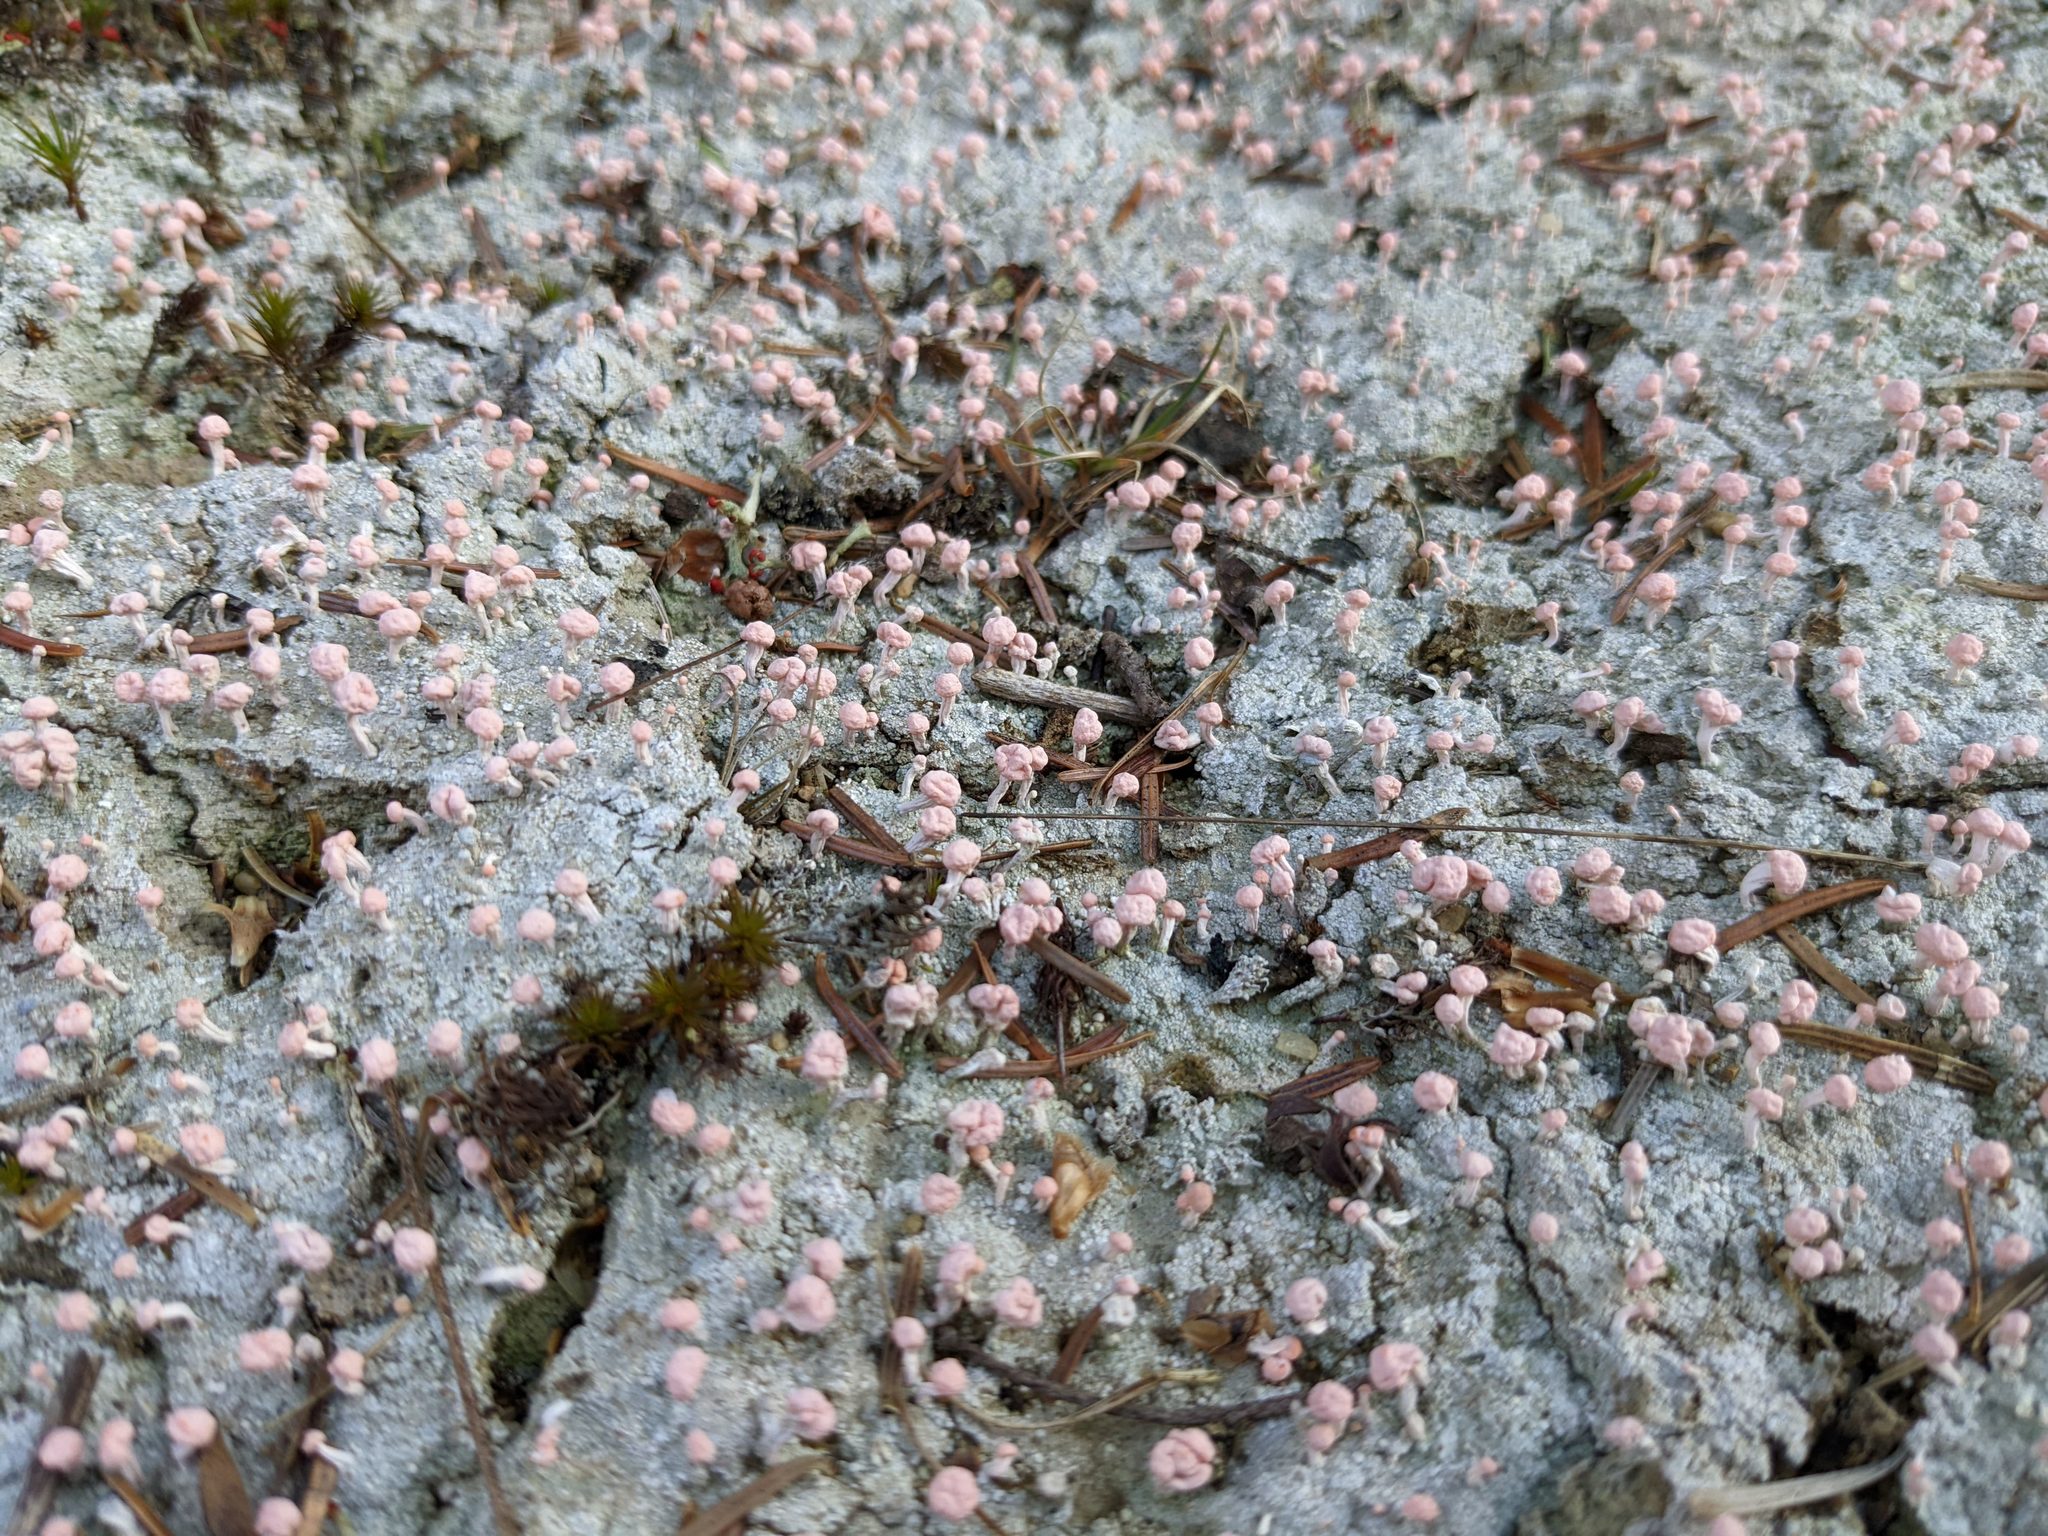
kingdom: Fungi
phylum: Ascomycota
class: Lecanoromycetes
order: Pertusariales
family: Icmadophilaceae
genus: Dibaeis
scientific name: Dibaeis baeomyces
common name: Pink earth lichen
